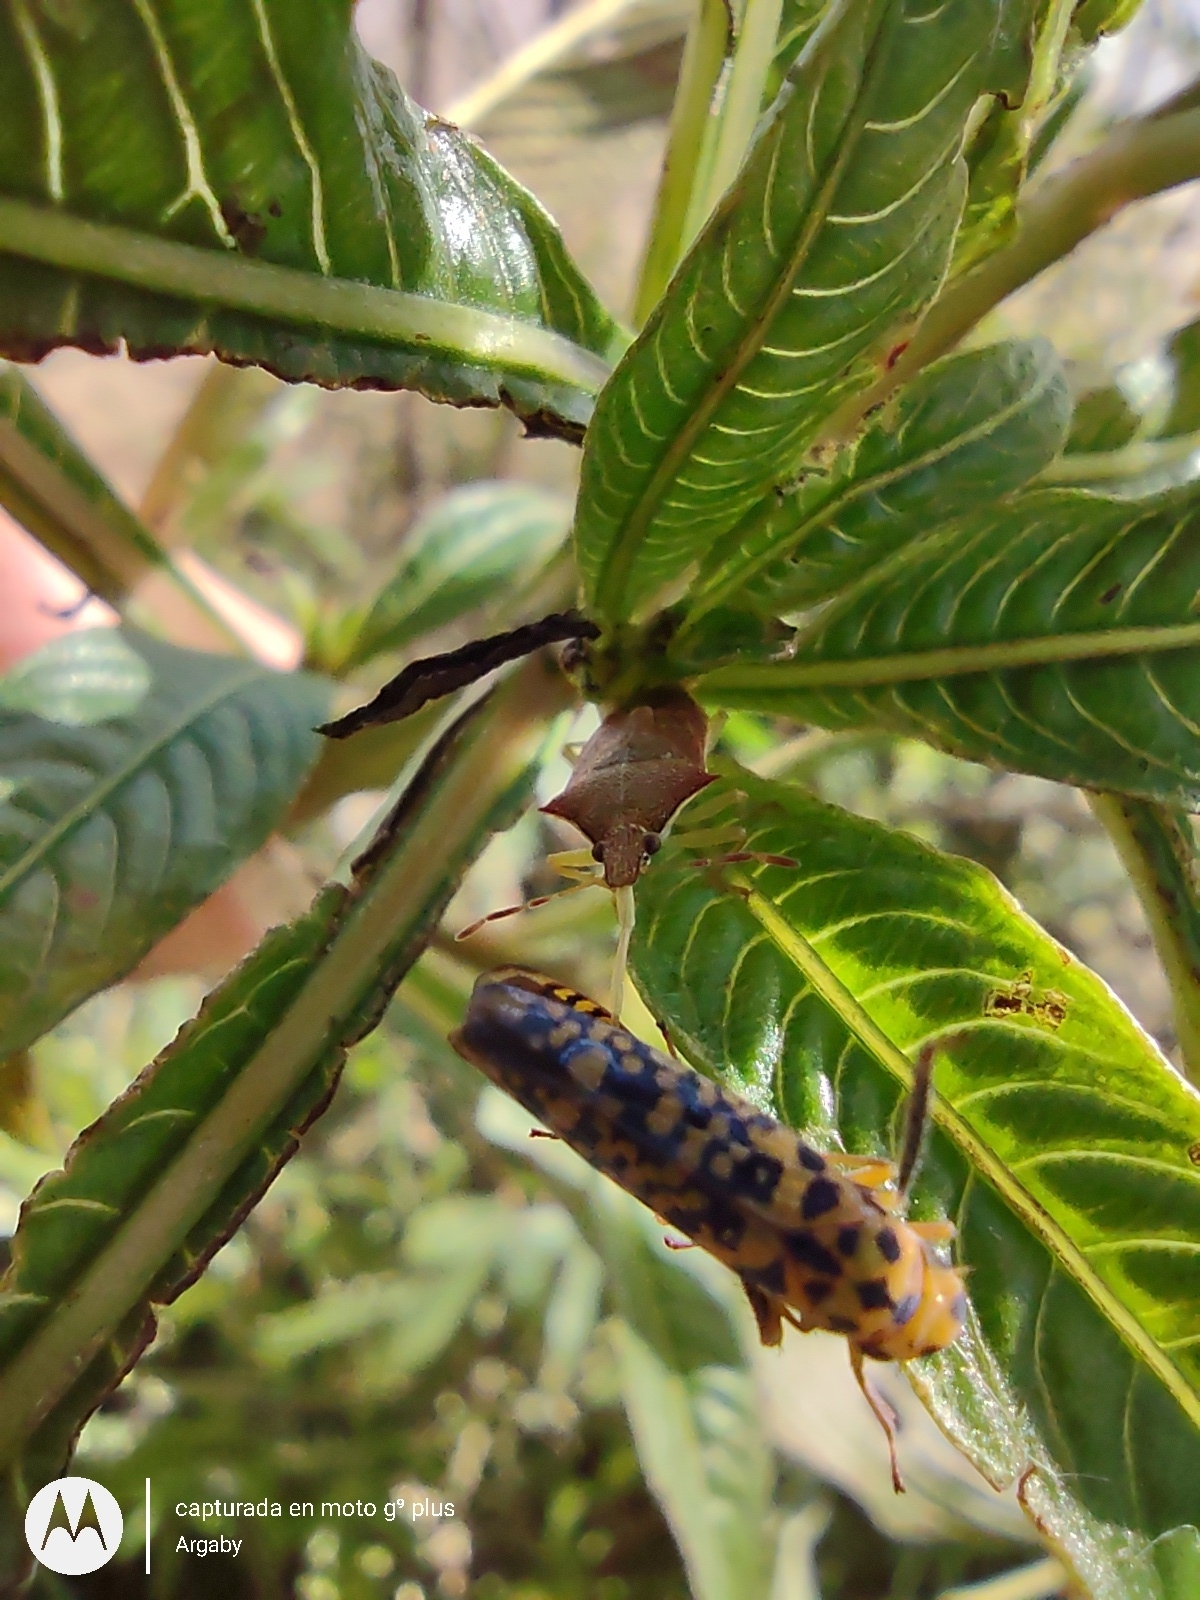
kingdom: Animalia
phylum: Arthropoda
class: Insecta
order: Hemiptera
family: Pentatomidae
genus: Supputius
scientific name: Supputius
